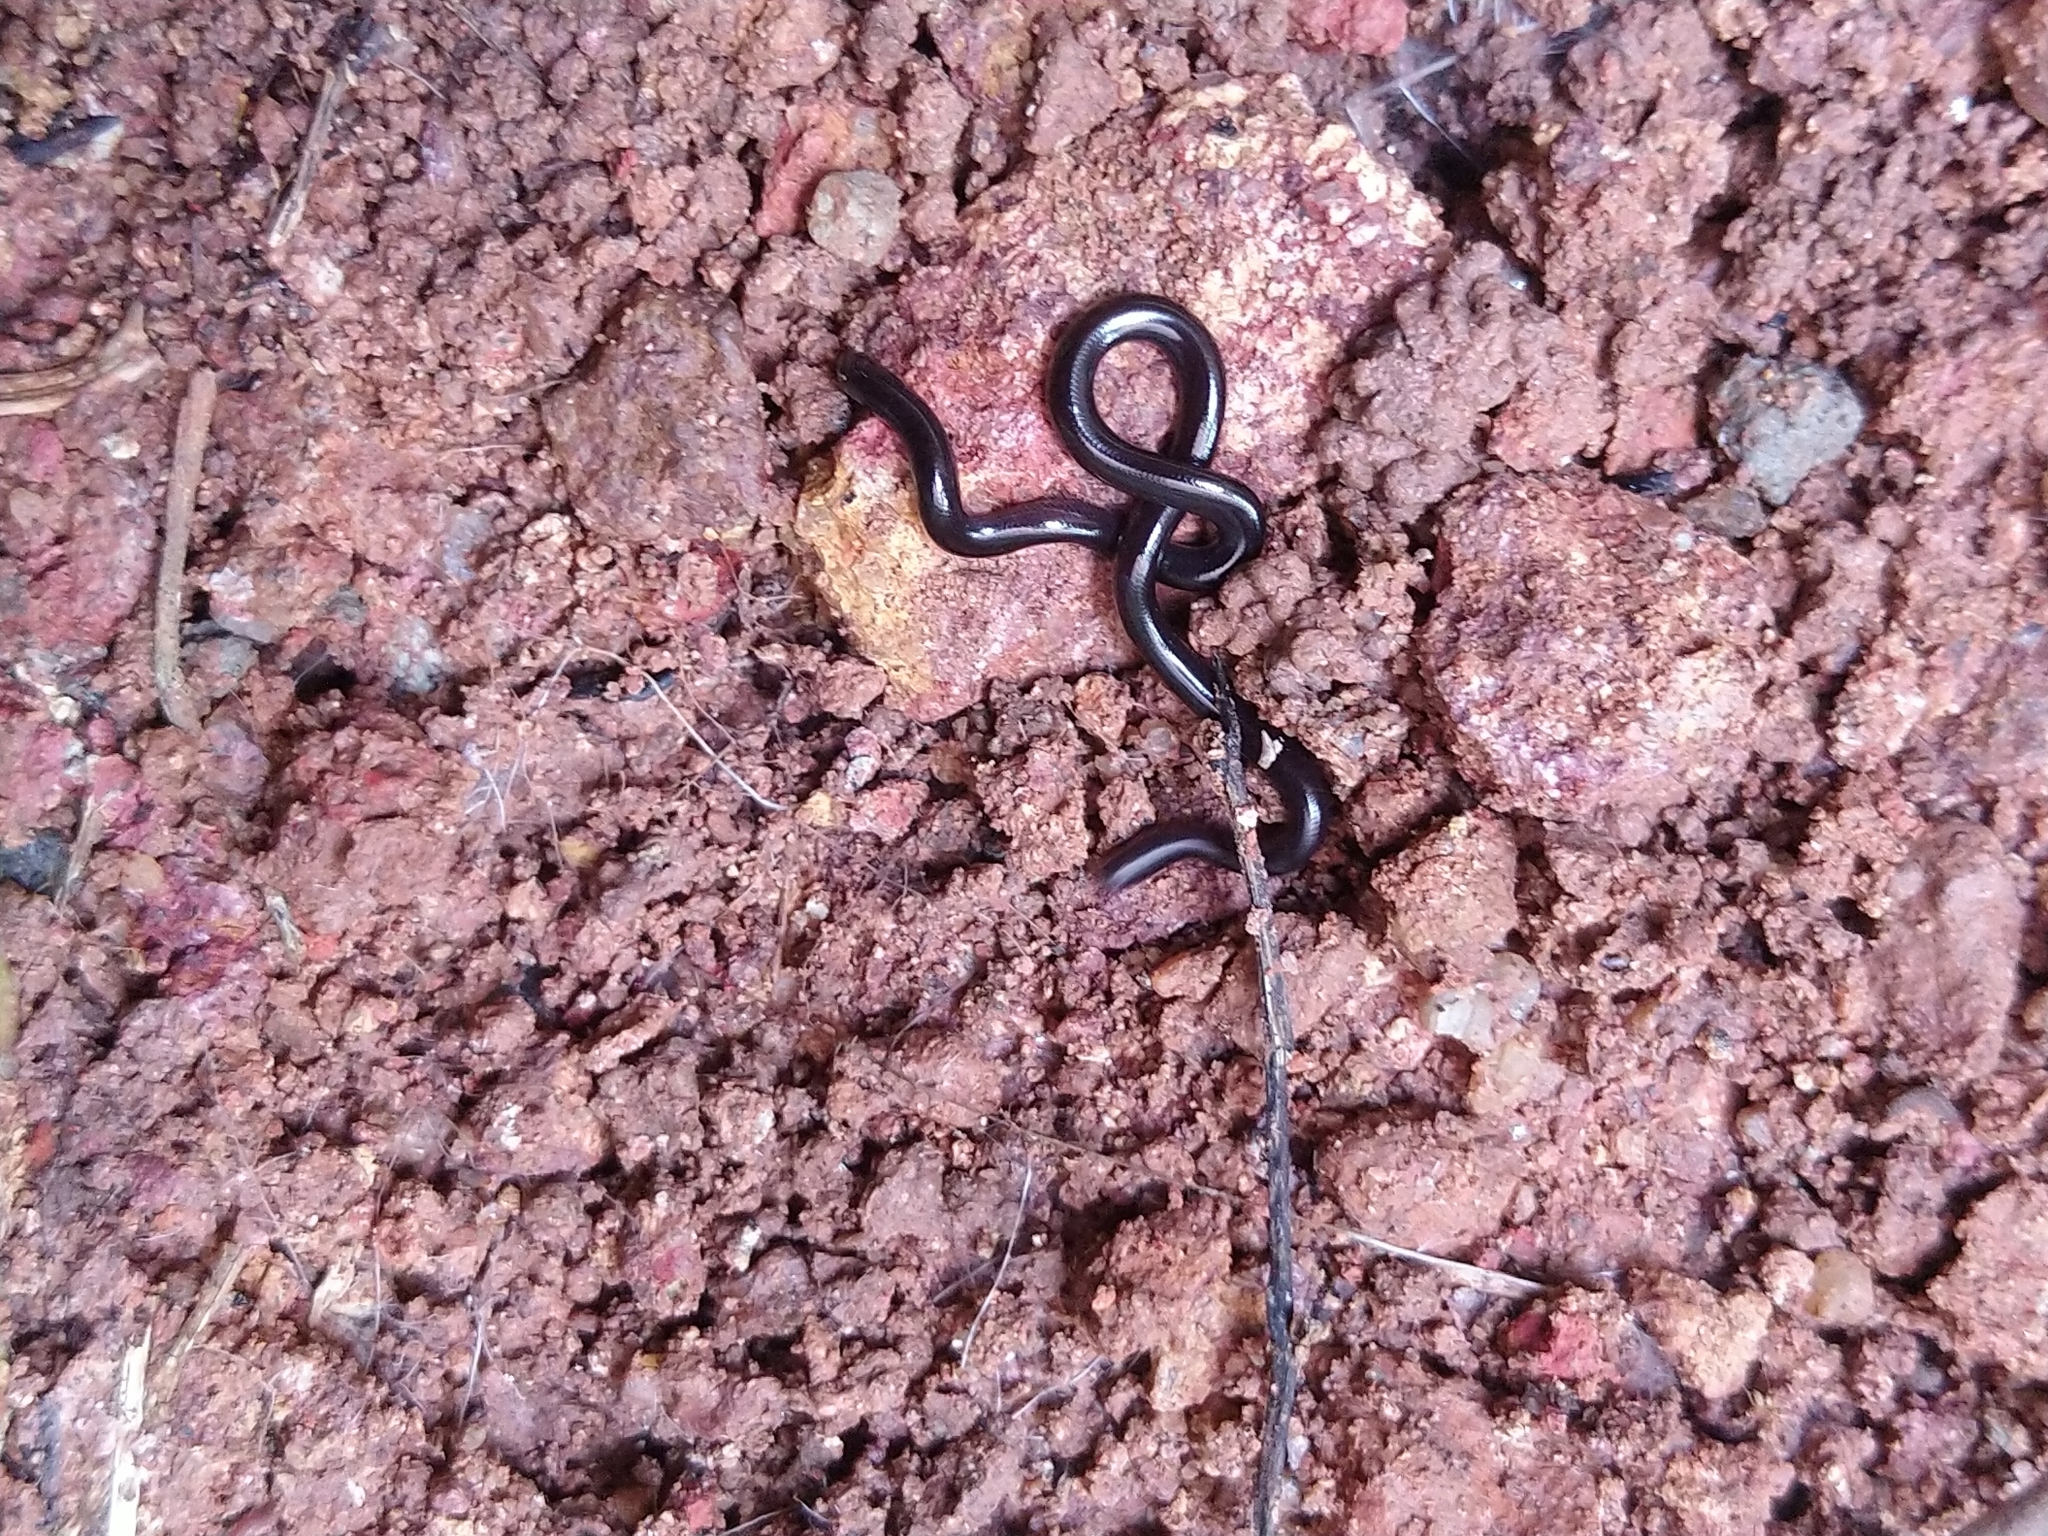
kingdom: Animalia
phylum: Chordata
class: Squamata
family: Typhlopidae
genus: Indotyphlops
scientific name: Indotyphlops braminus
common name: Brahminy blindsnake
